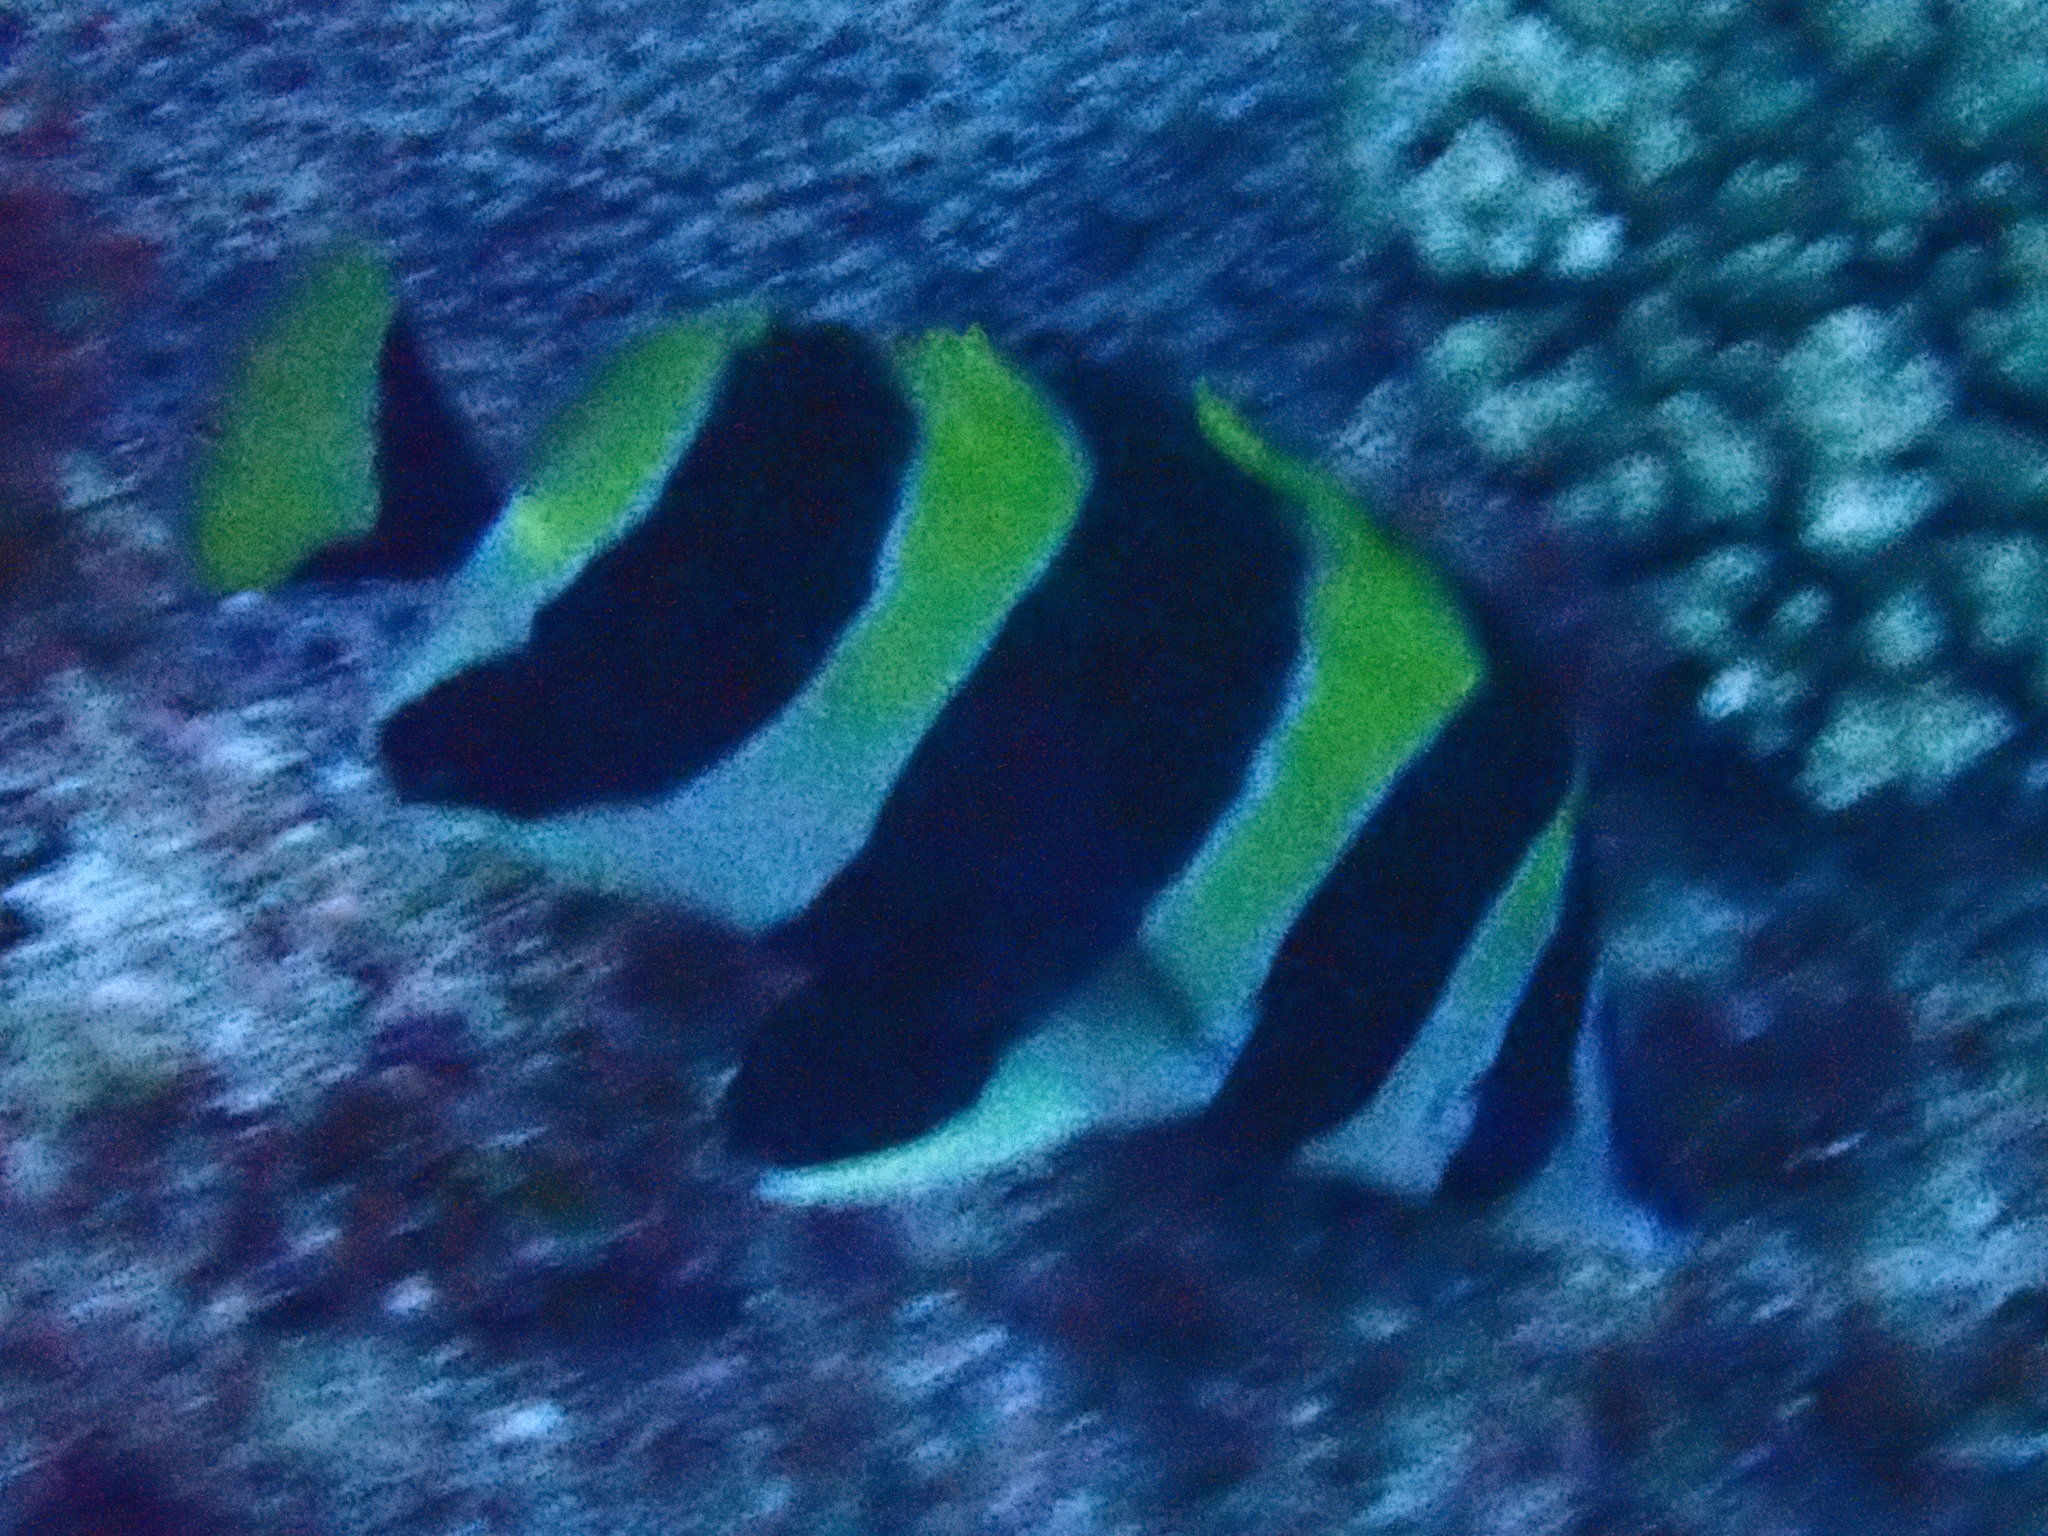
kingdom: Animalia
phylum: Chordata
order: Perciformes
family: Chaetodontidae
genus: Amphichaetodon
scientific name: Amphichaetodon howensis
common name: Broad-barred butterflyfish
